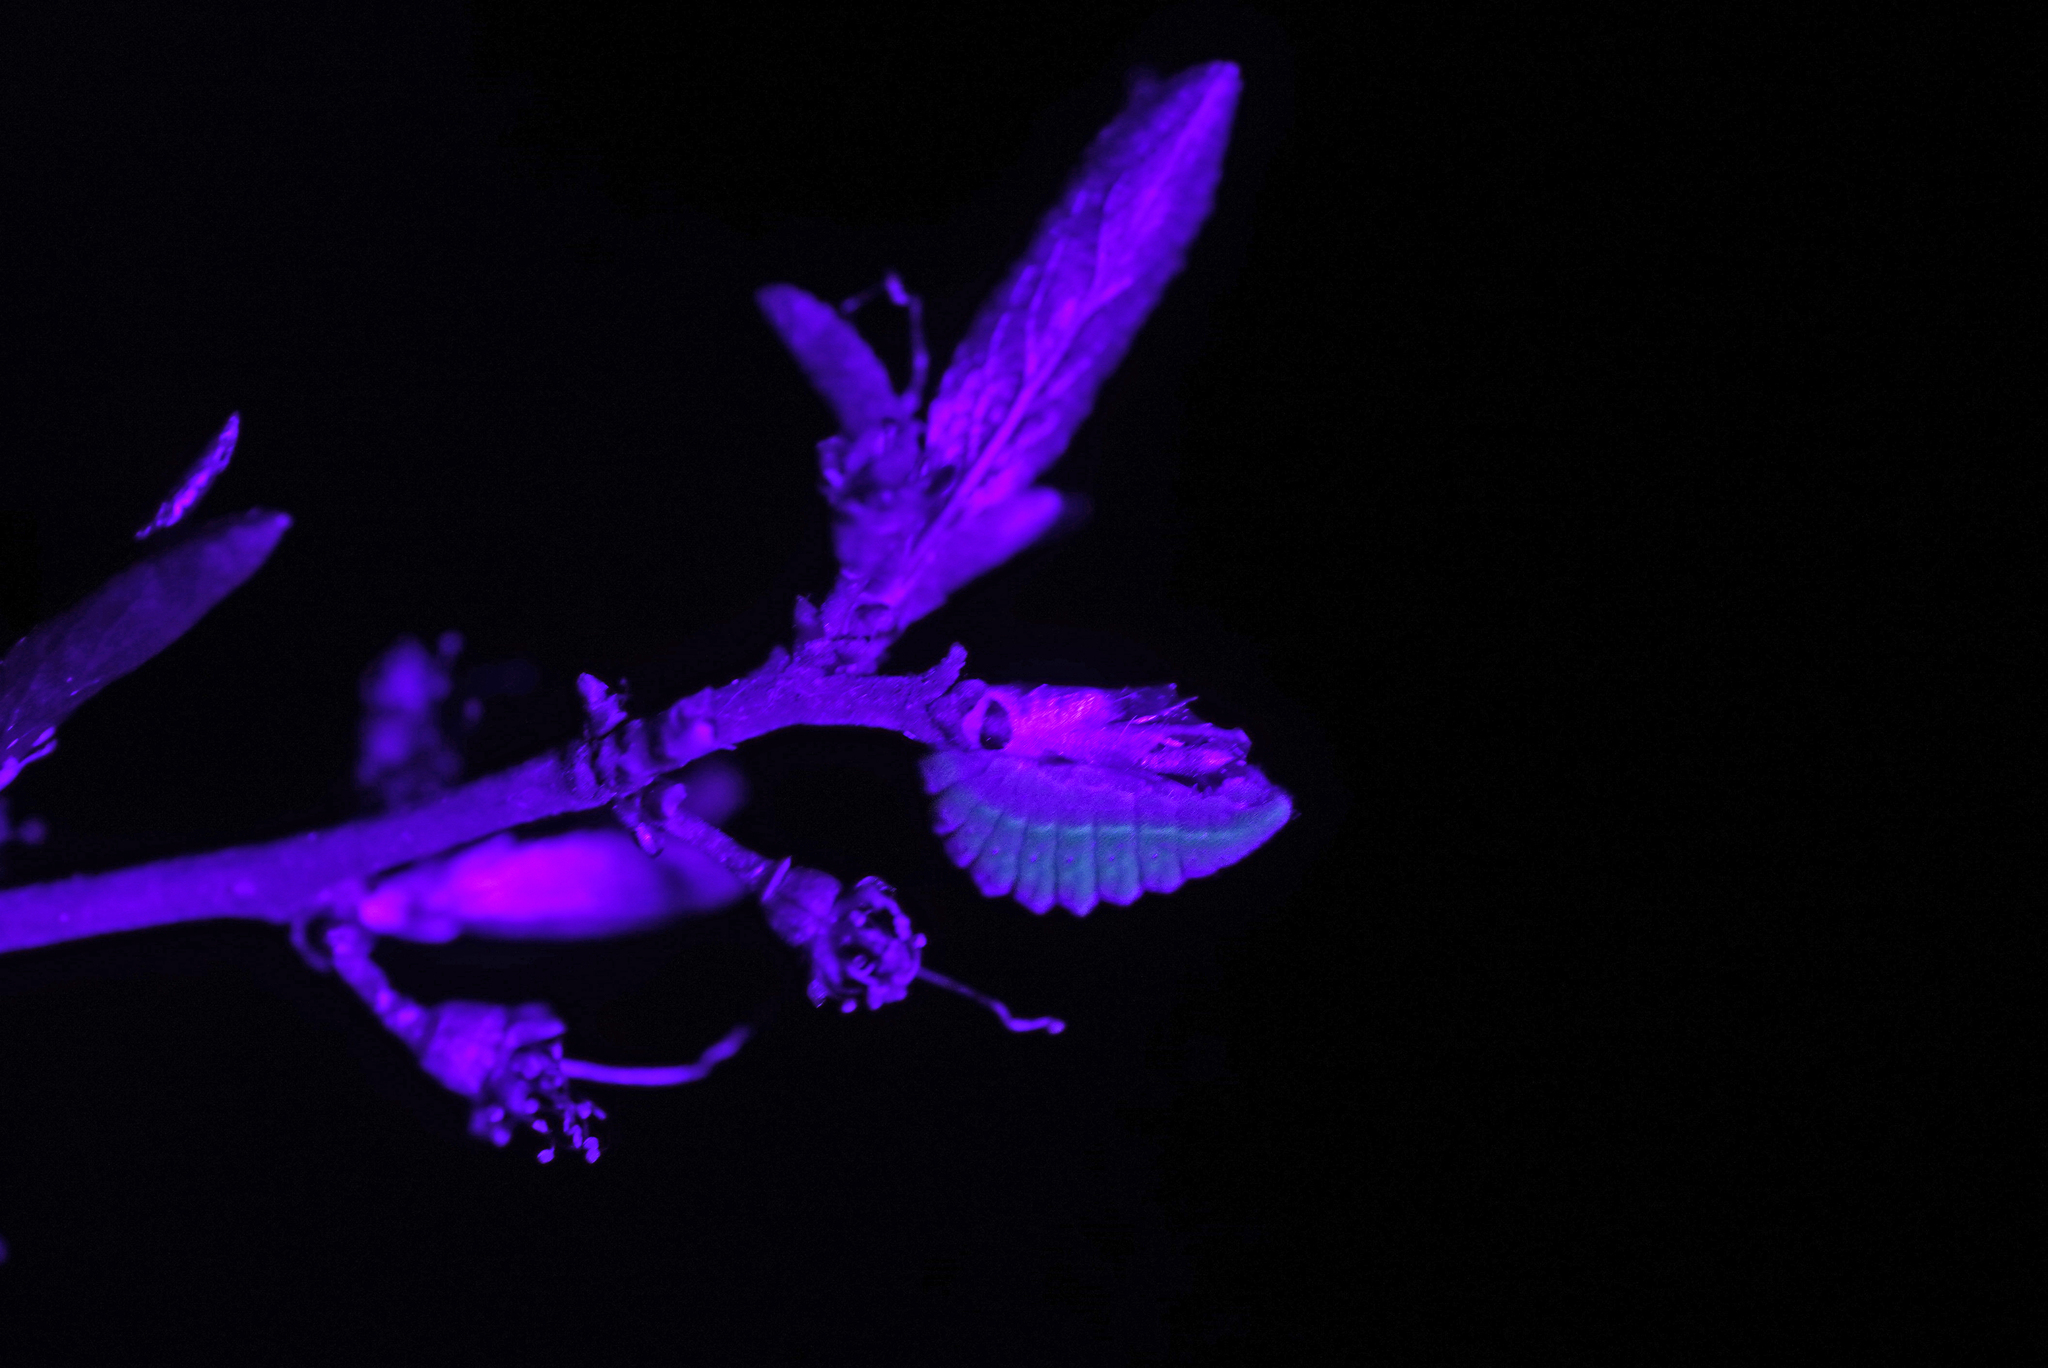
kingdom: Animalia
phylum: Arthropoda
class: Insecta
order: Lepidoptera
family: Lycaenidae
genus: Fixsenia
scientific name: Fixsenia pruni
